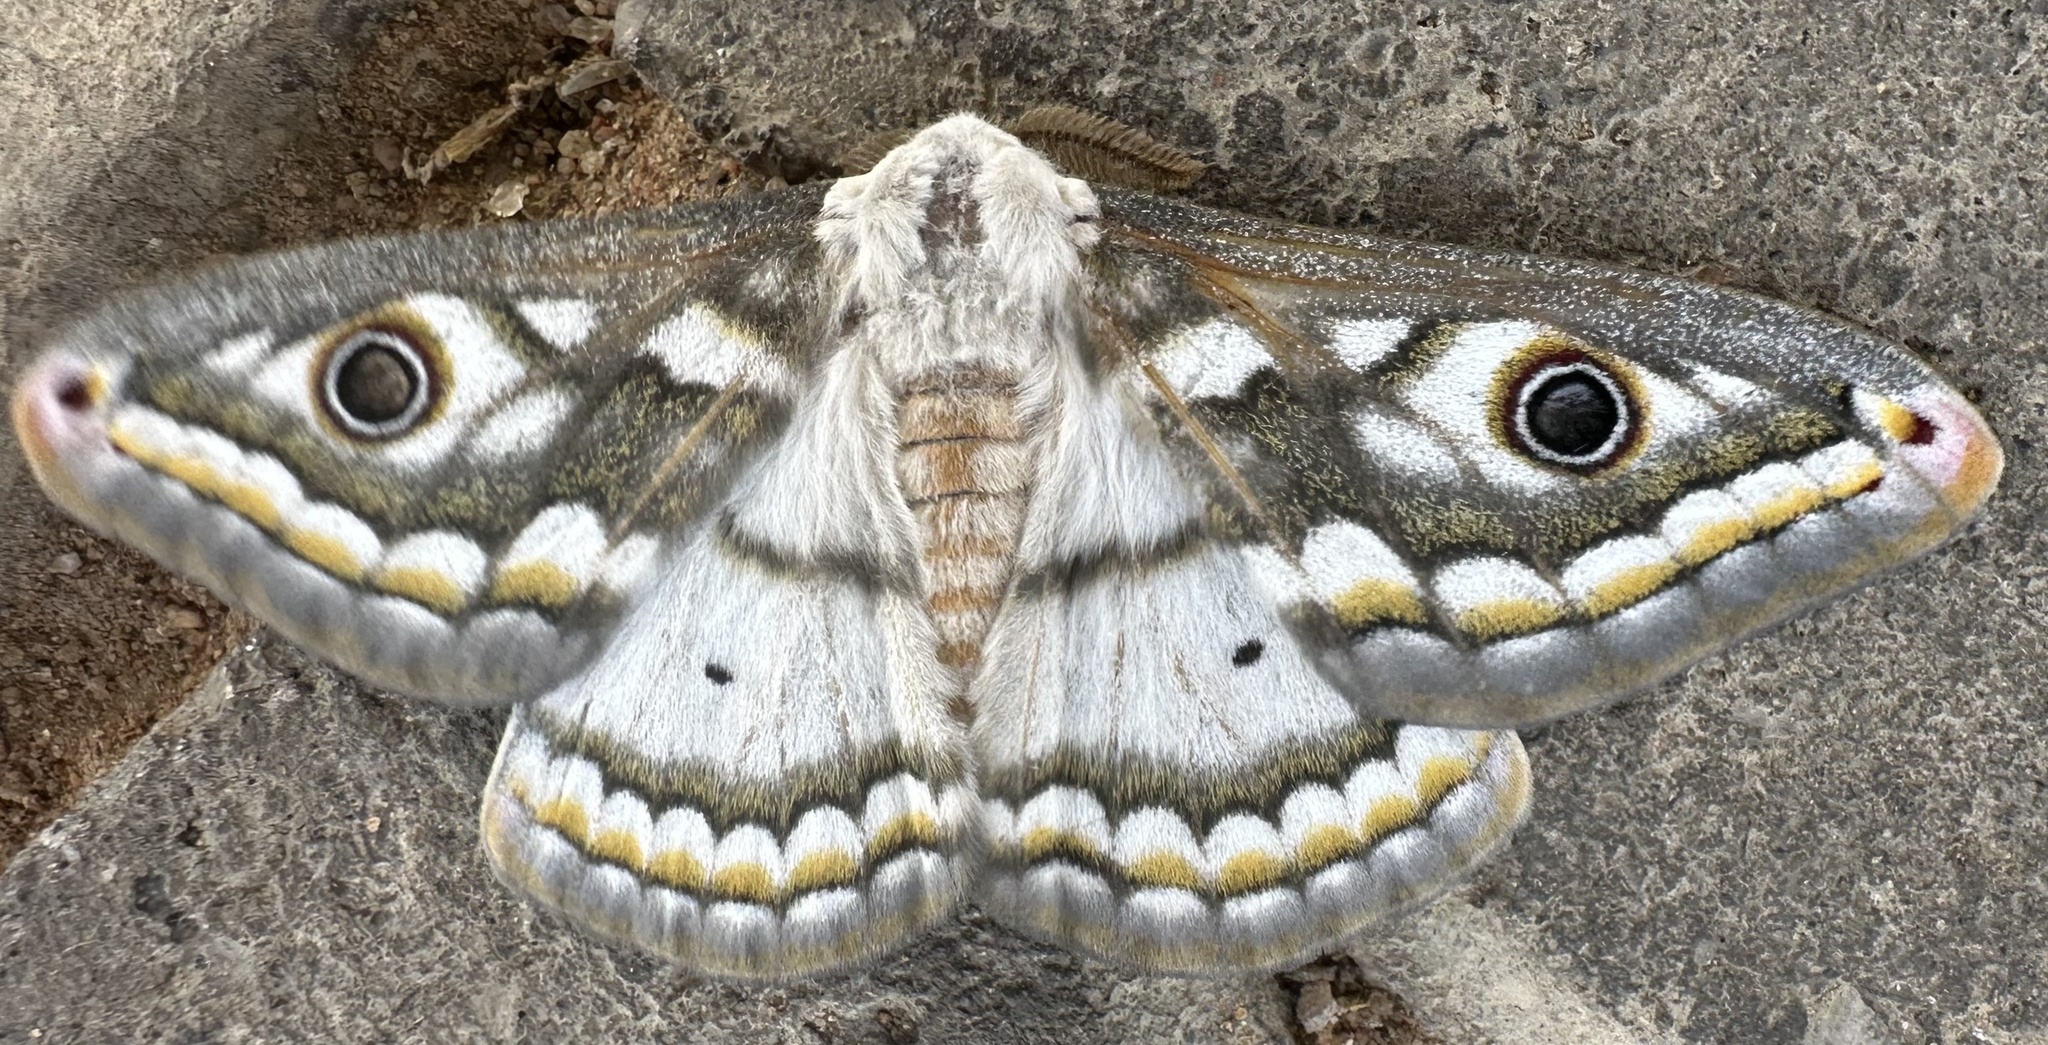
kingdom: Animalia
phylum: Arthropoda
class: Insecta
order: Lepidoptera
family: Saturniidae
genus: Heniocha
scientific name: Heniocha bioculata
